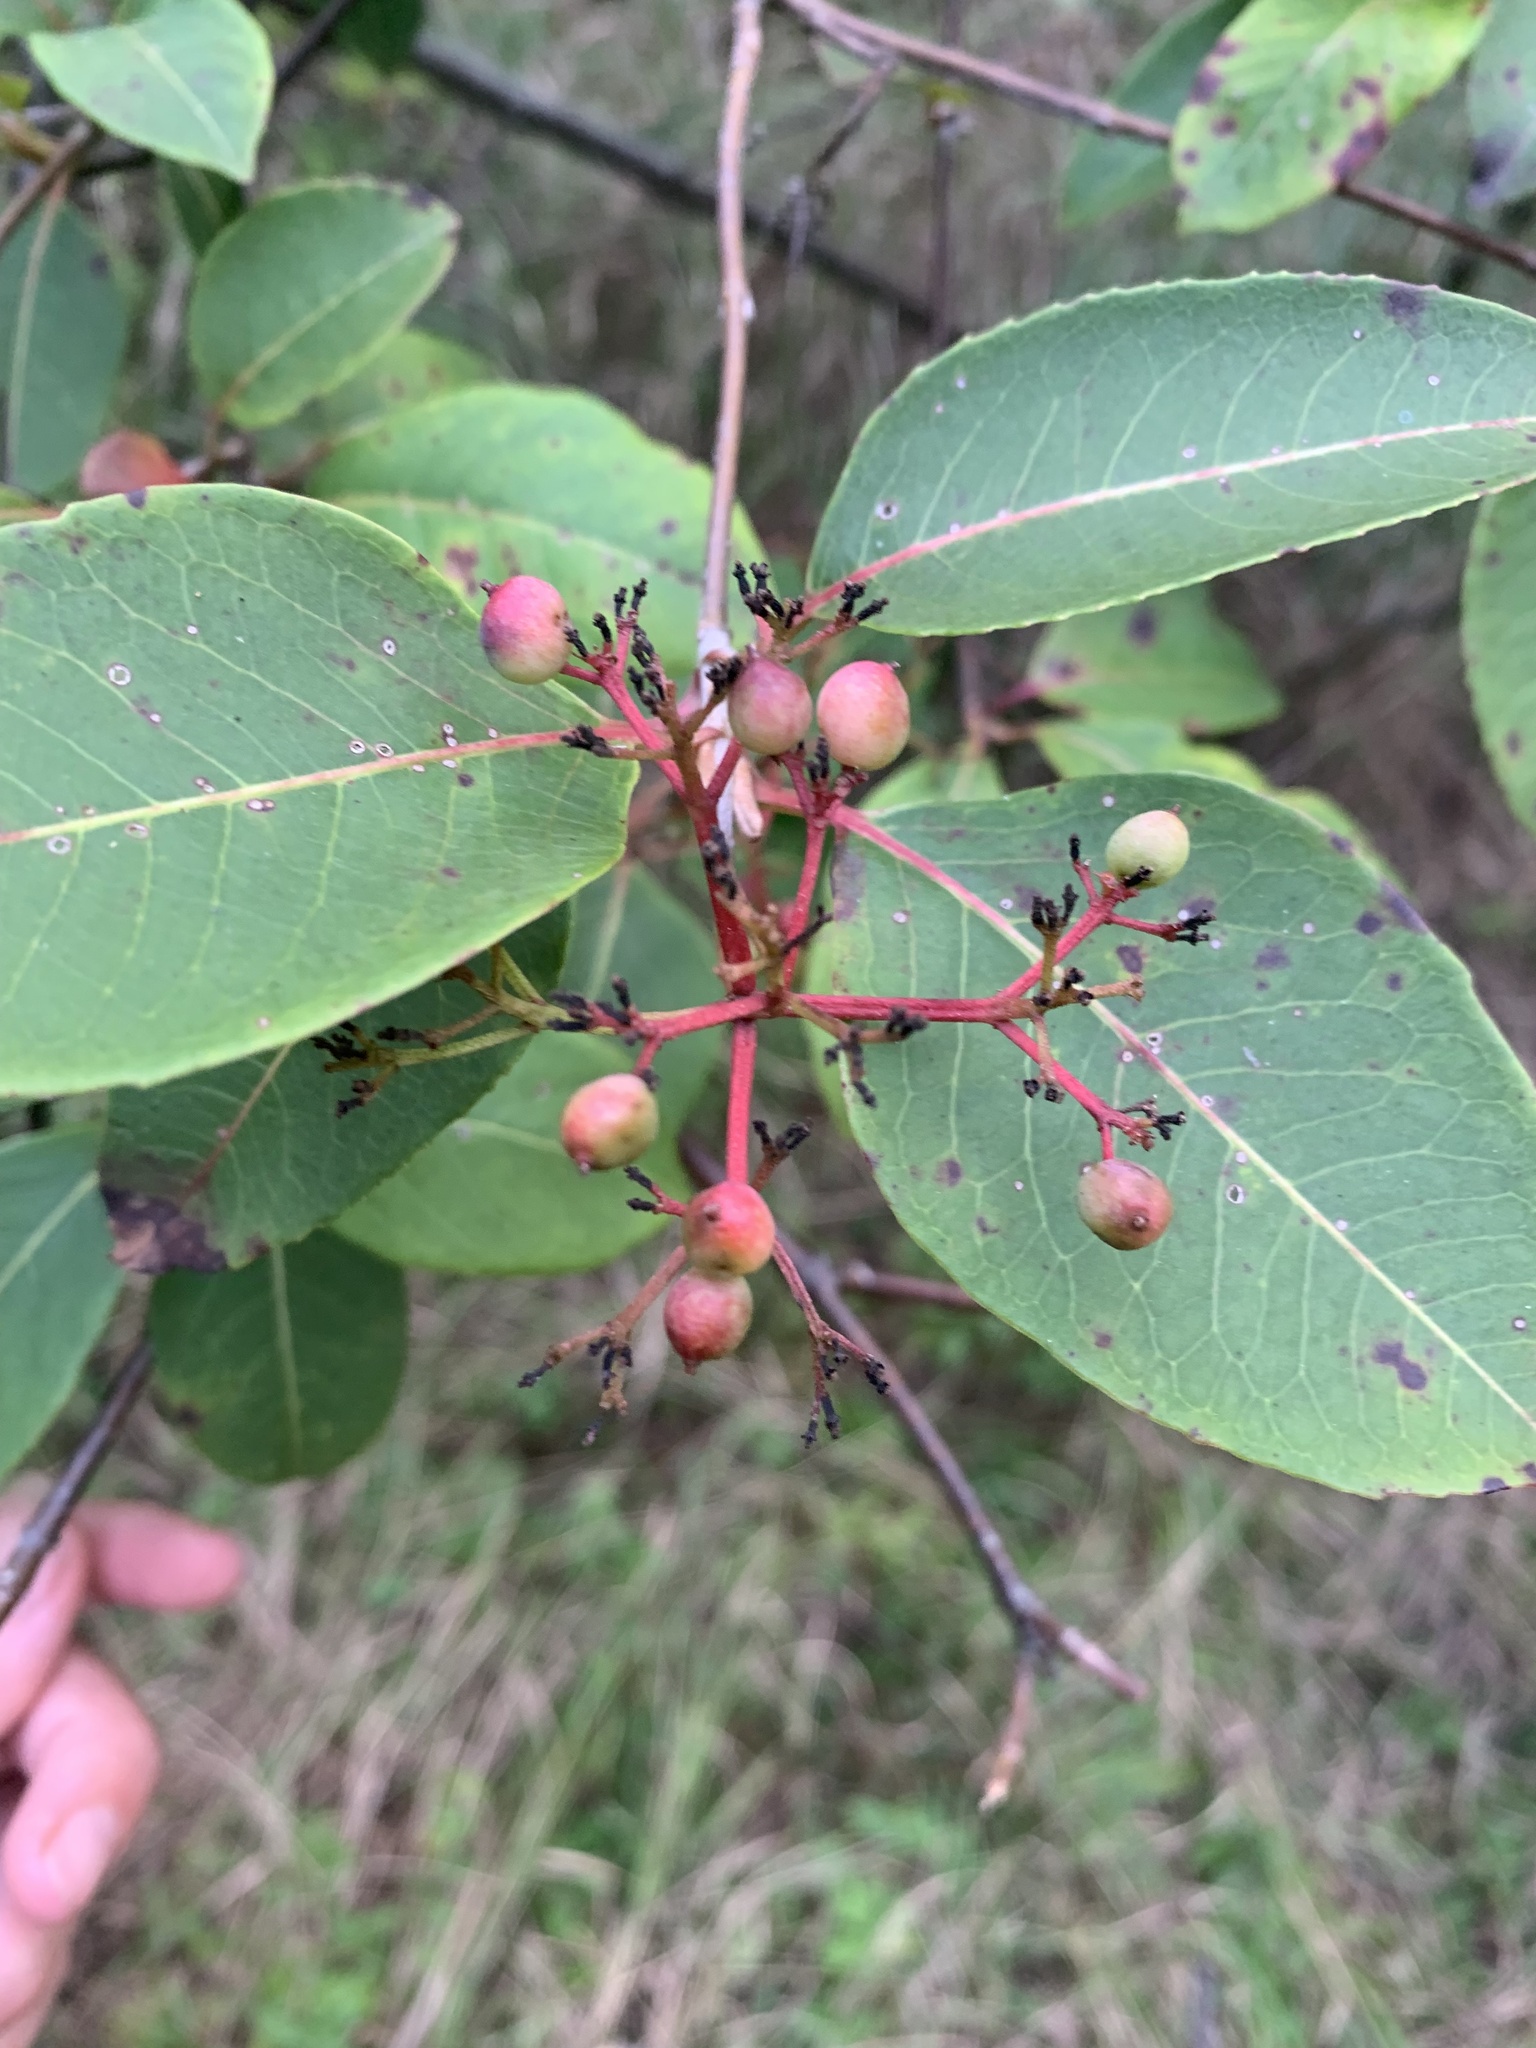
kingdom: Plantae
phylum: Tracheophyta
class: Magnoliopsida
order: Dipsacales
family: Viburnaceae
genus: Viburnum
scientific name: Viburnum cassinoides
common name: Swamp haw
